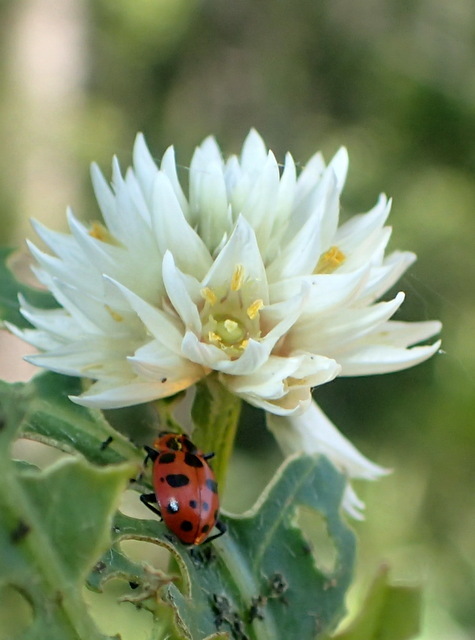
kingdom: Animalia
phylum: Arthropoda
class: Insecta
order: Coleoptera
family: Coccinellidae
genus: Coleomegilla
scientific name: Coleomegilla maculata
